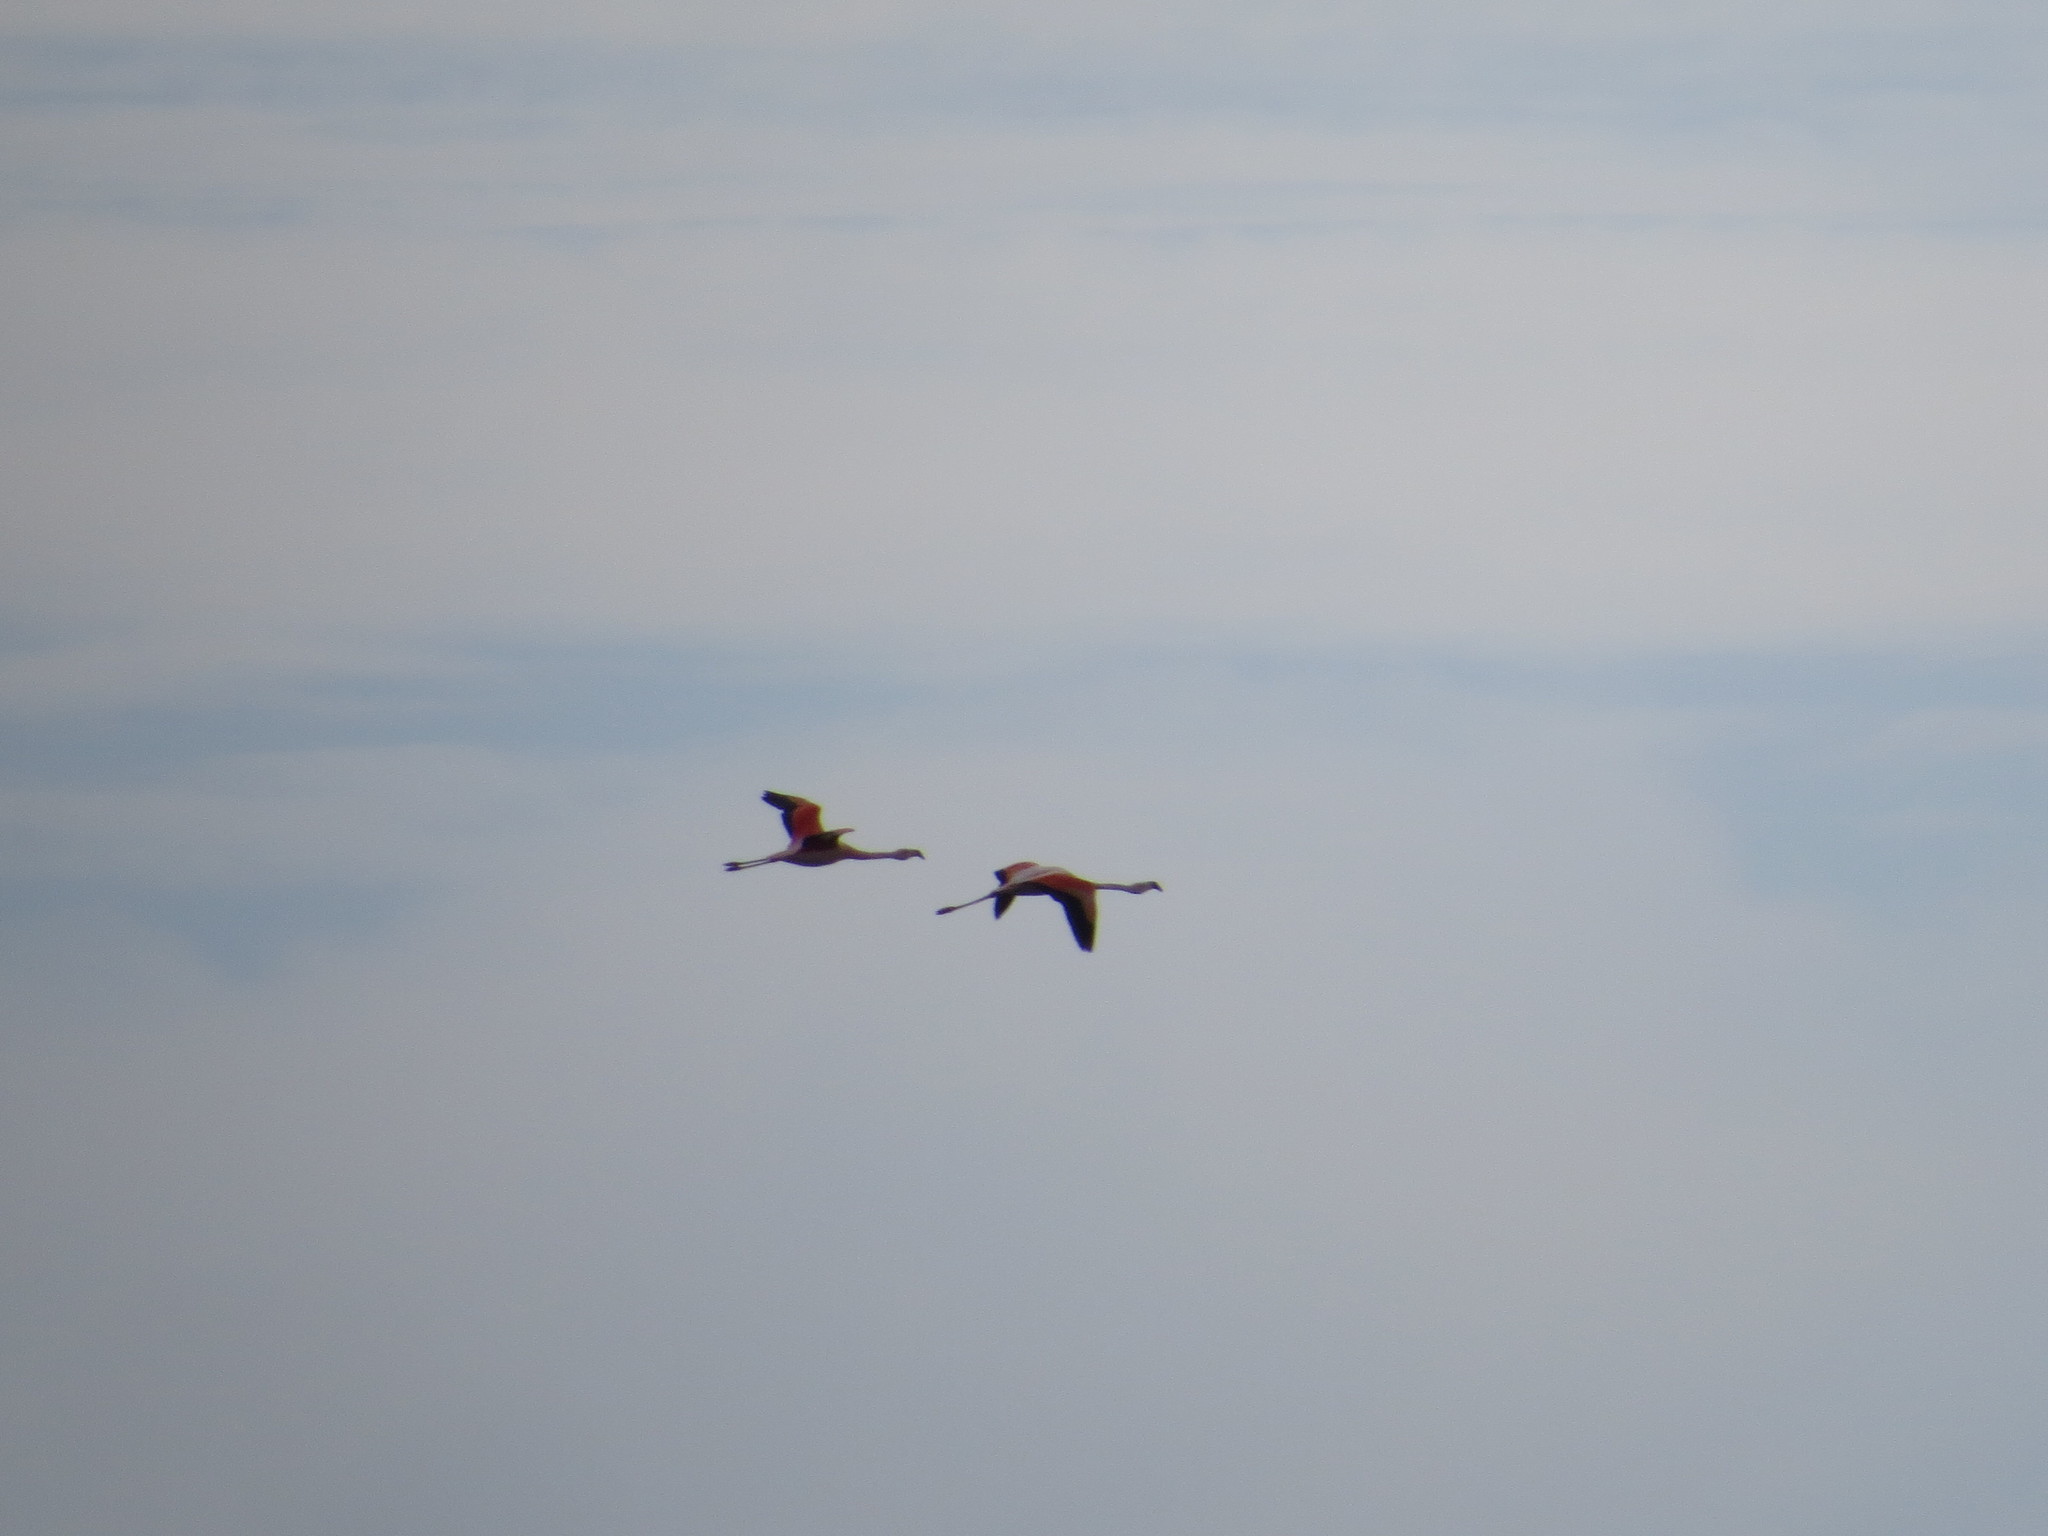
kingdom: Animalia
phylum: Chordata
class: Aves
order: Phoenicopteriformes
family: Phoenicopteridae
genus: Phoenicopterus
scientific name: Phoenicopterus chilensis
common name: Chilean flamingo
